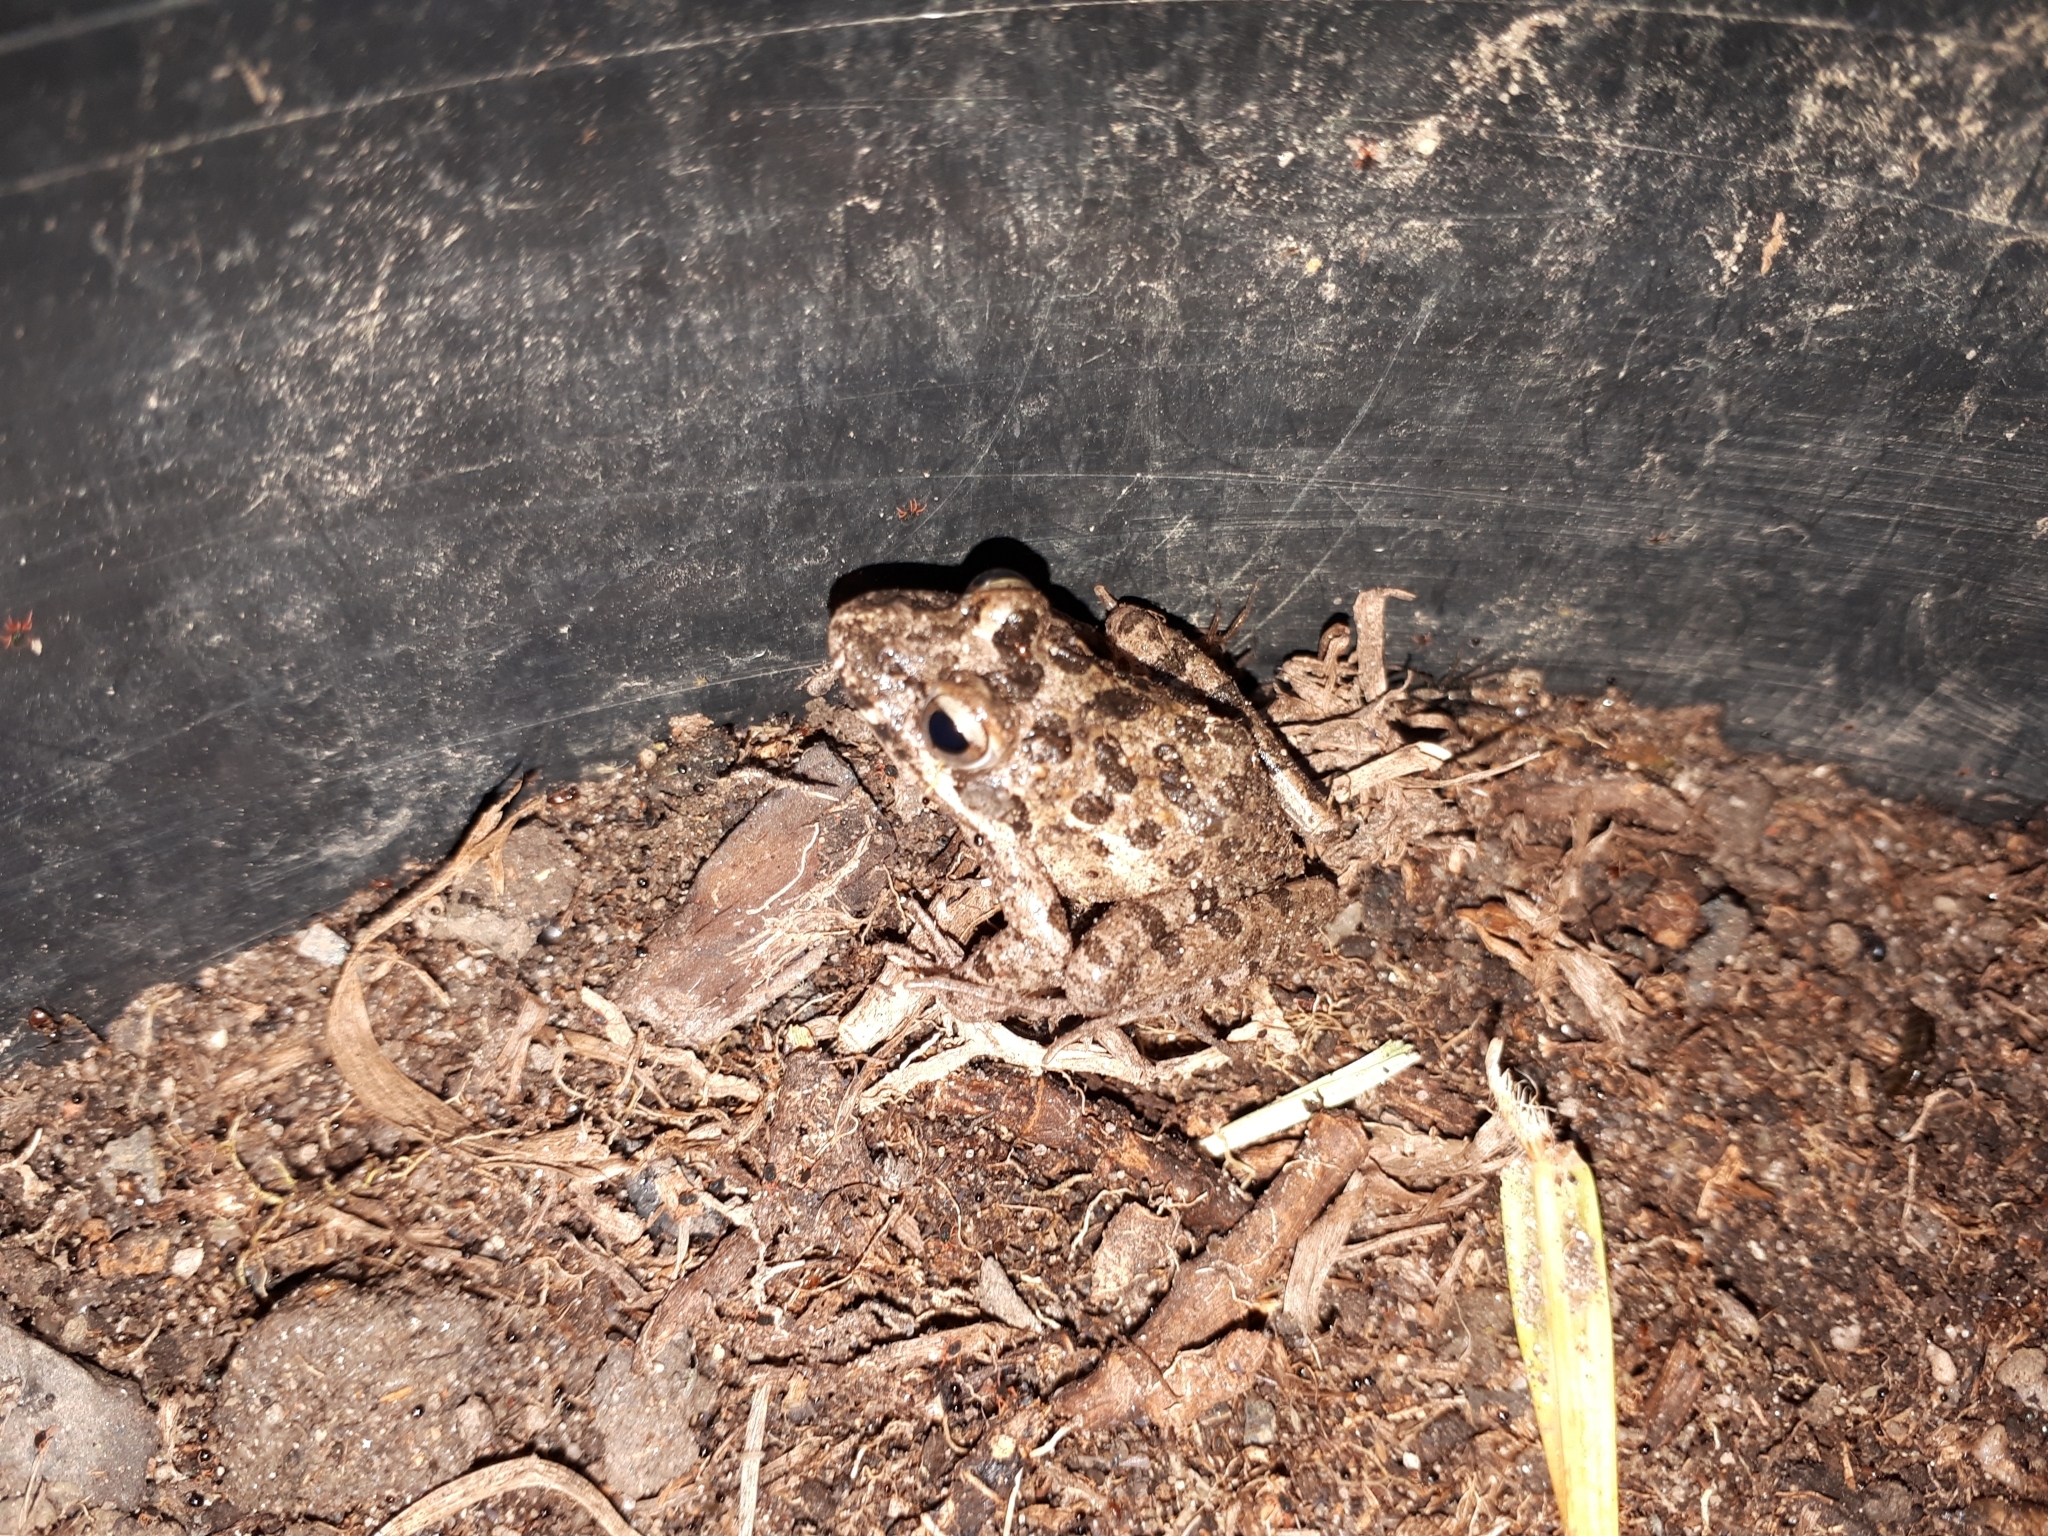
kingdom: Animalia
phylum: Chordata
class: Amphibia
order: Anura
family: Pyxicephalidae
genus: Strongylopus
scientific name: Strongylopus grayii
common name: Gray's stream frog
